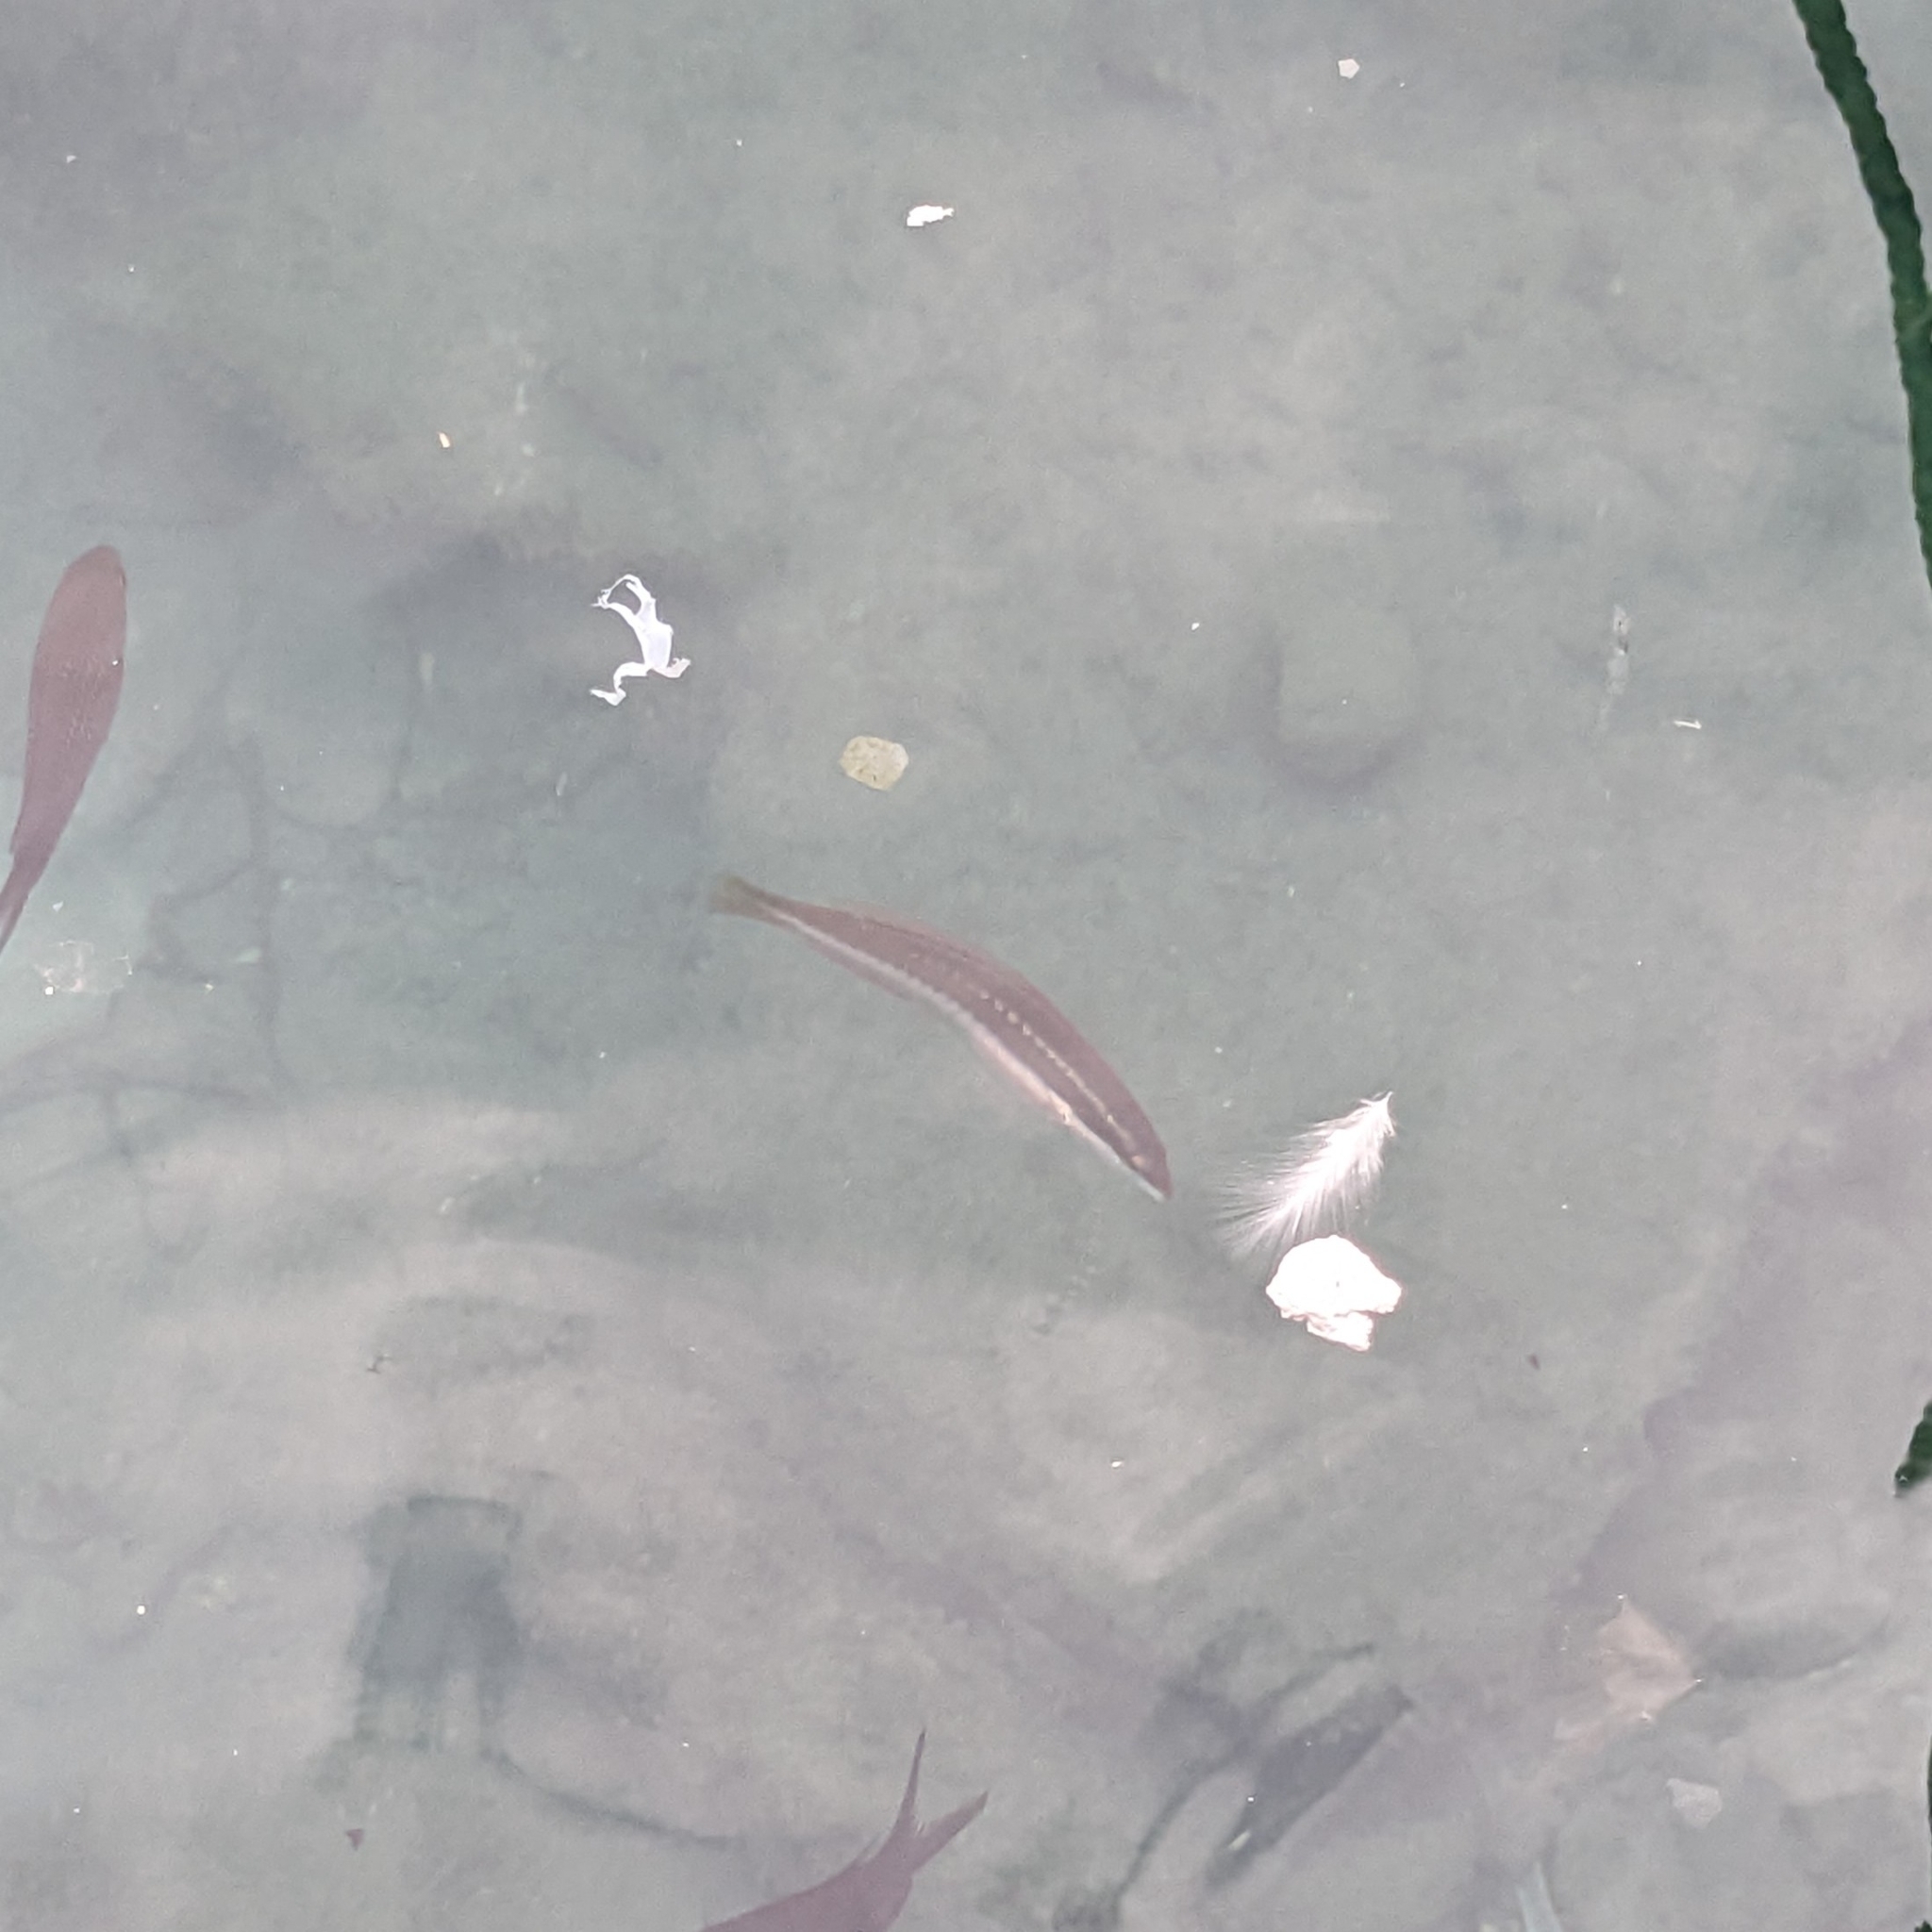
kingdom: Animalia
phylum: Chordata
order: Perciformes
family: Labridae
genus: Coris
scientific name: Coris julis
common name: Rainbow wrasse
